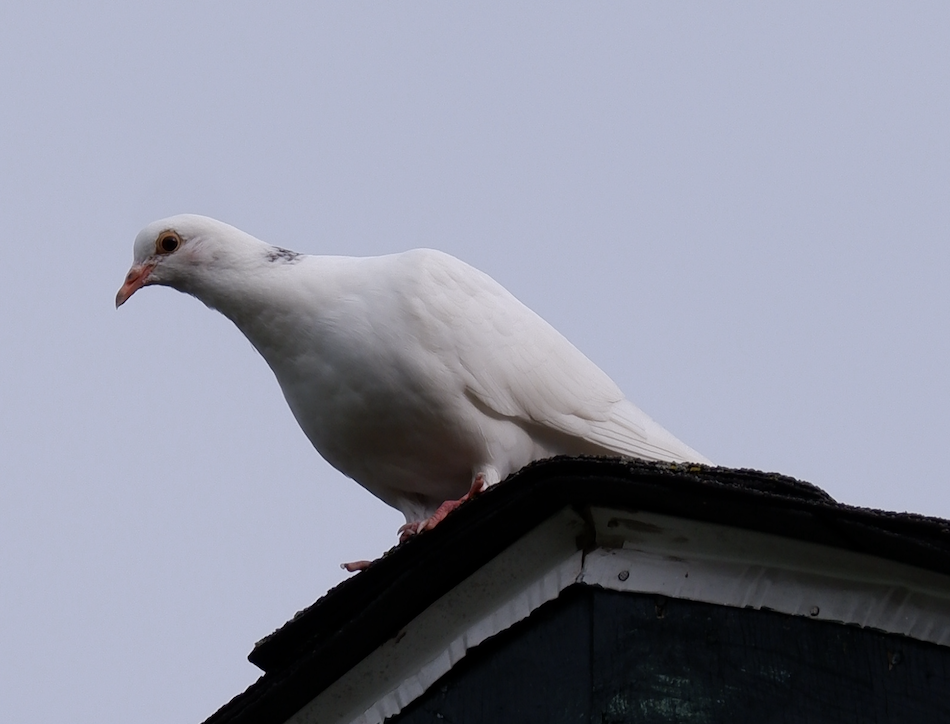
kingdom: Animalia
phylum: Chordata
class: Aves
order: Columbiformes
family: Columbidae
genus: Columba
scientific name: Columba livia
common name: Rock pigeon
